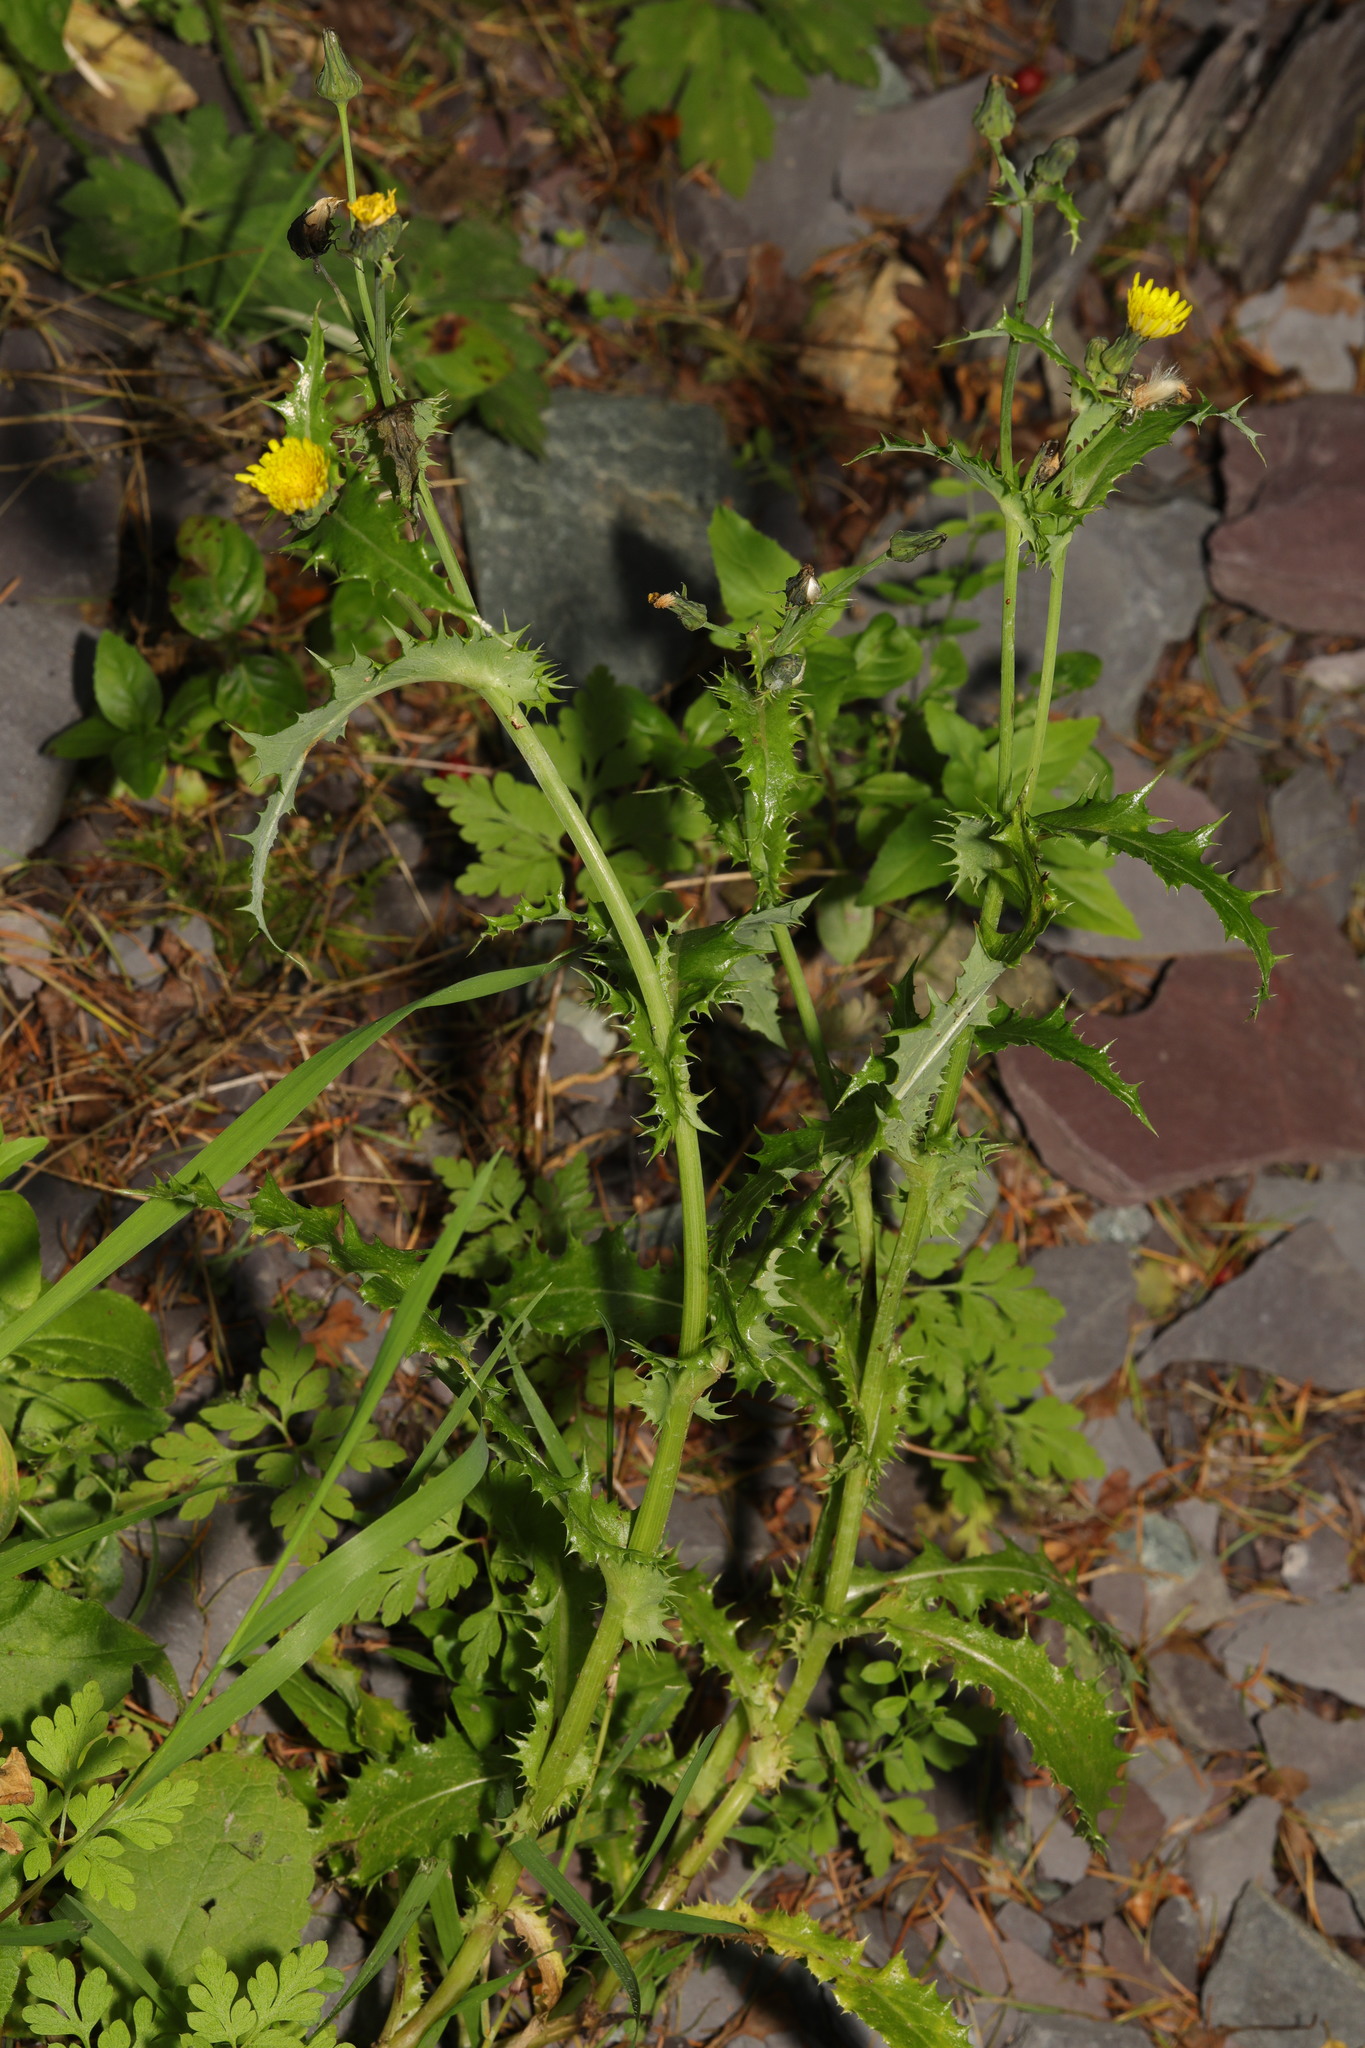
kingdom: Plantae
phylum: Tracheophyta
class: Magnoliopsida
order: Asterales
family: Asteraceae
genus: Sonchus
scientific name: Sonchus asper
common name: Prickly sow-thistle
